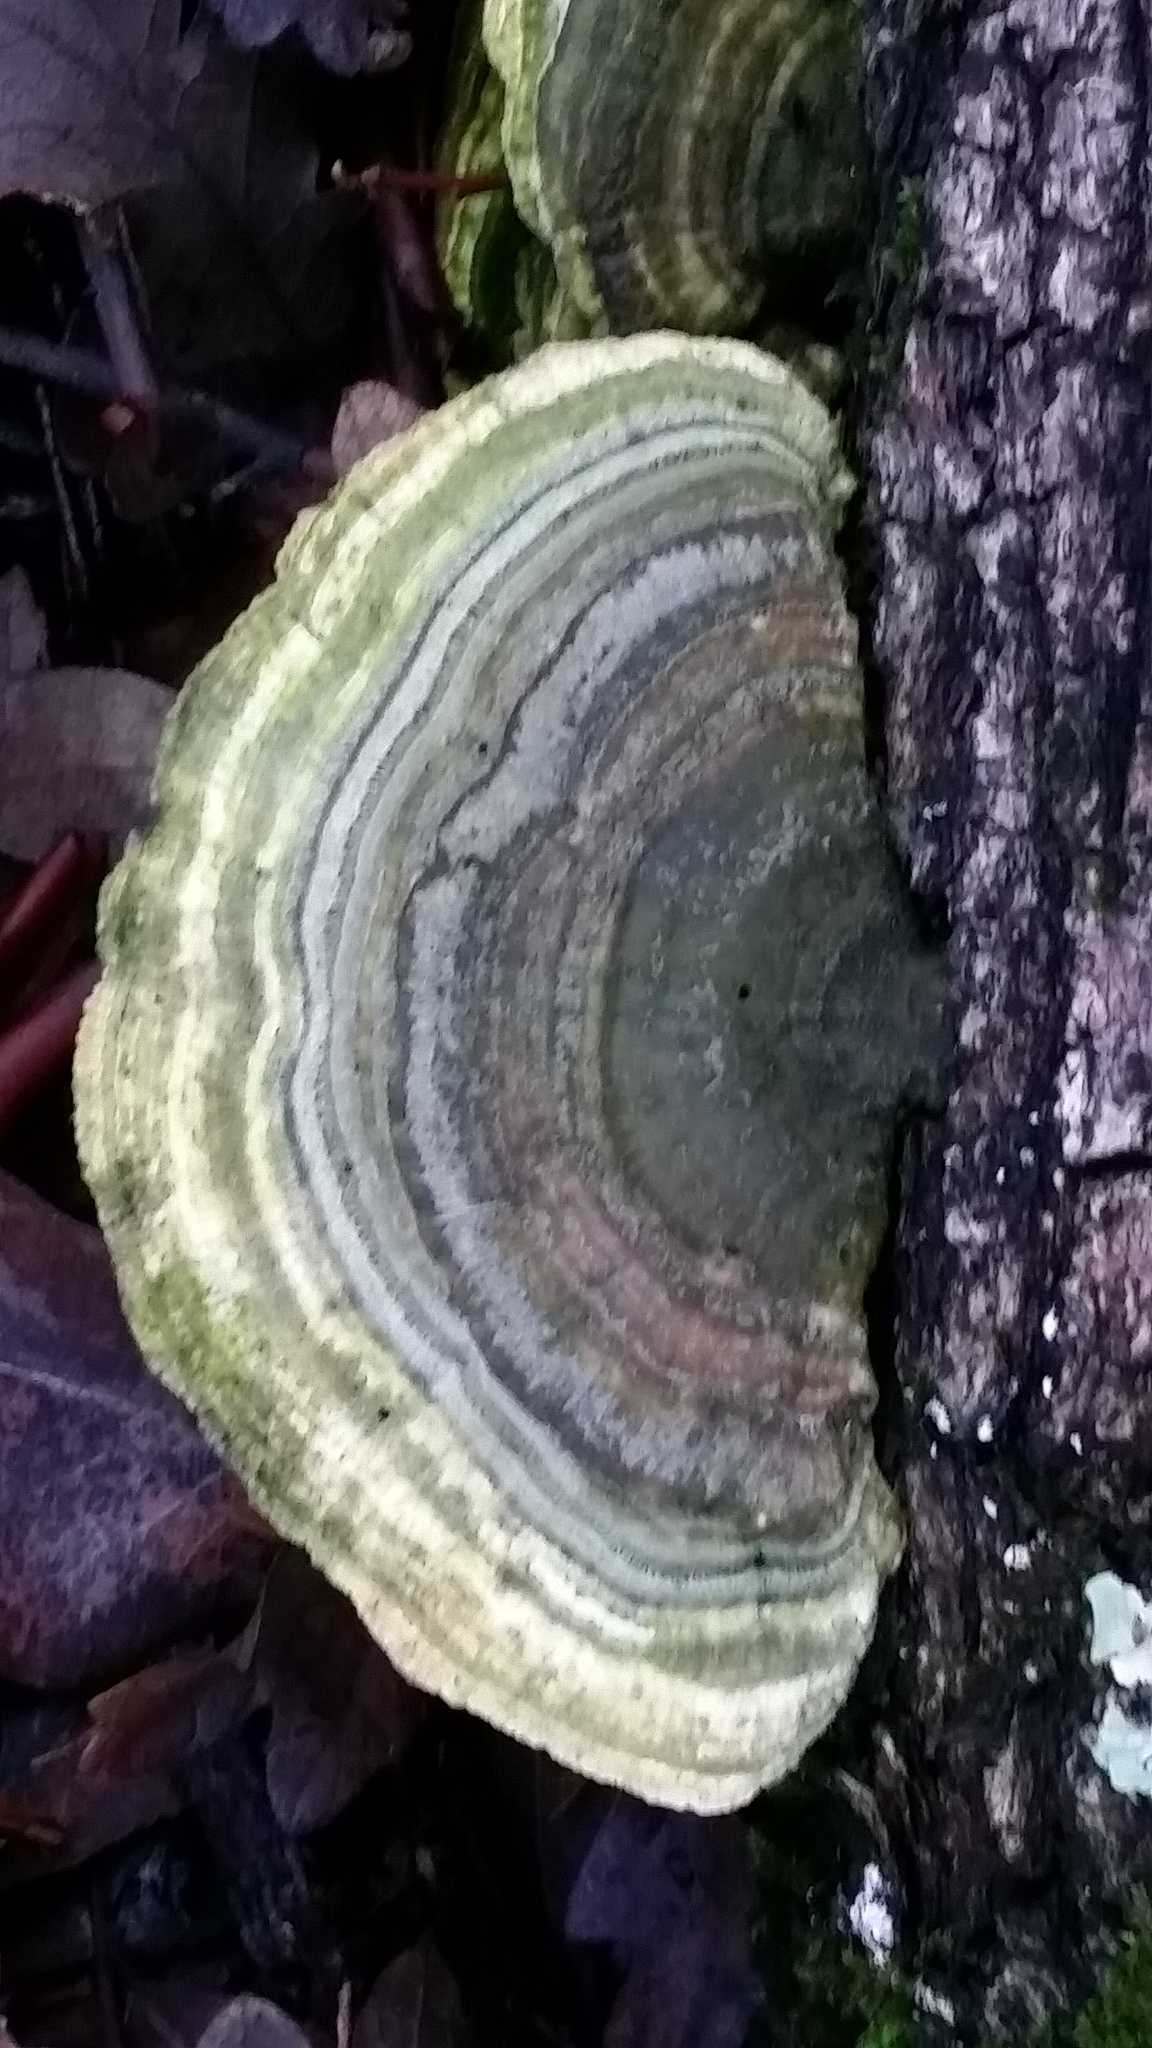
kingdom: Fungi
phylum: Basidiomycota
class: Agaricomycetes
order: Polyporales
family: Polyporaceae
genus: Lenzites
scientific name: Lenzites betulinus
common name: Birch mazegill
